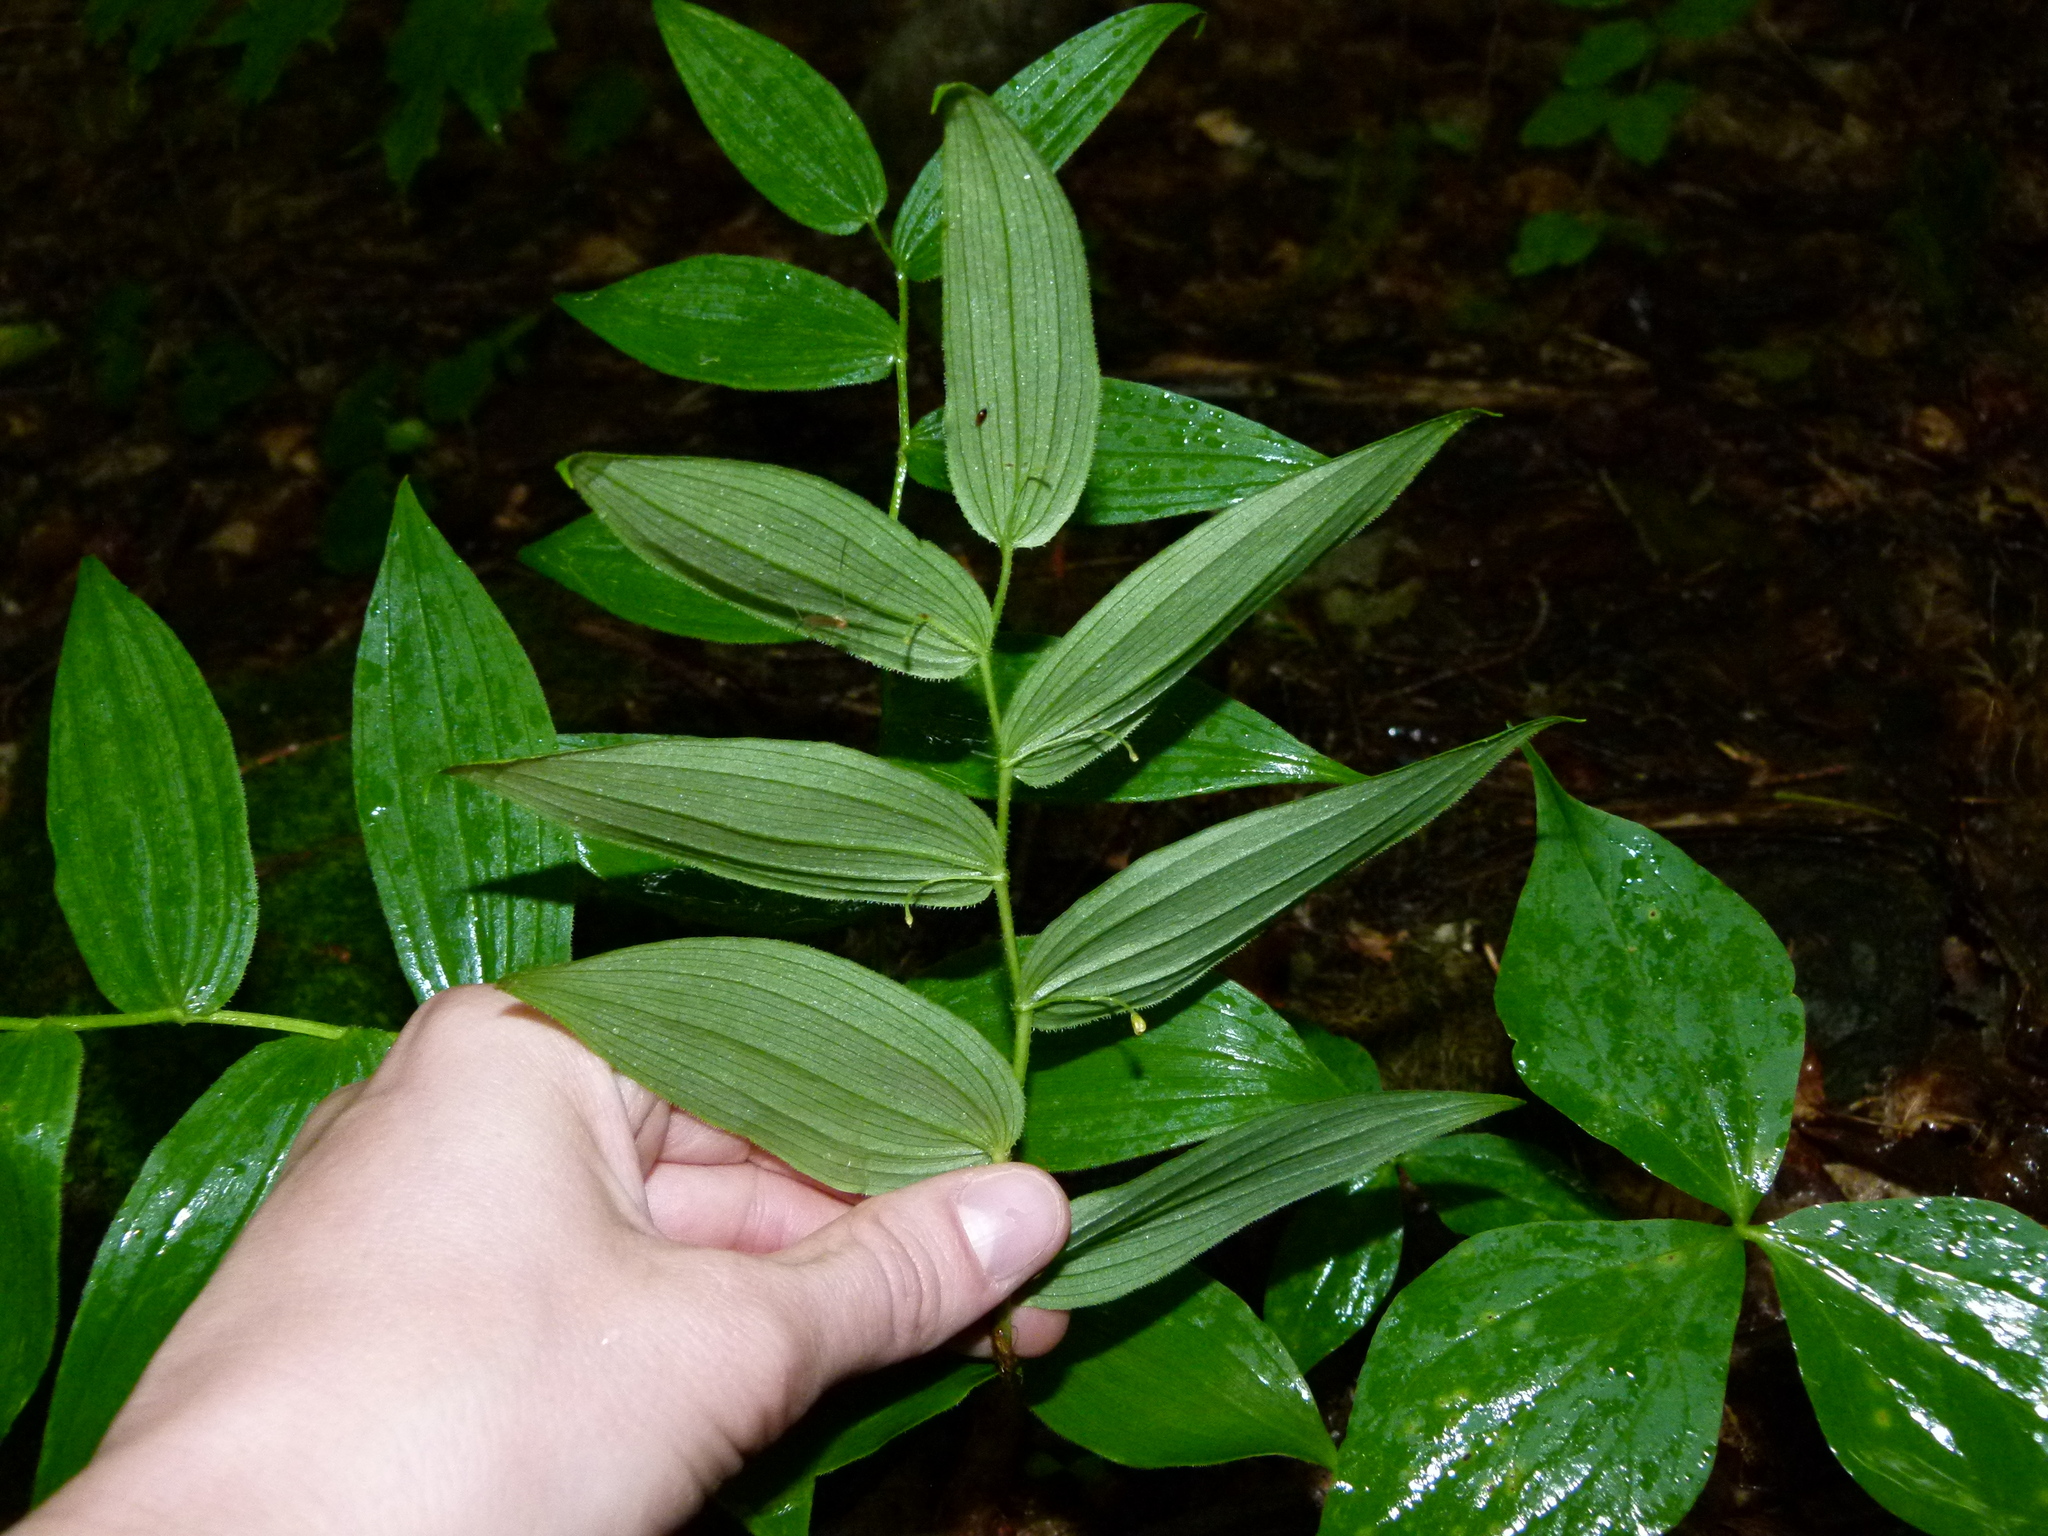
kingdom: Plantae
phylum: Tracheophyta
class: Liliopsida
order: Liliales
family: Liliaceae
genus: Streptopus
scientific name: Streptopus lanceolatus
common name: Rose mandarin
